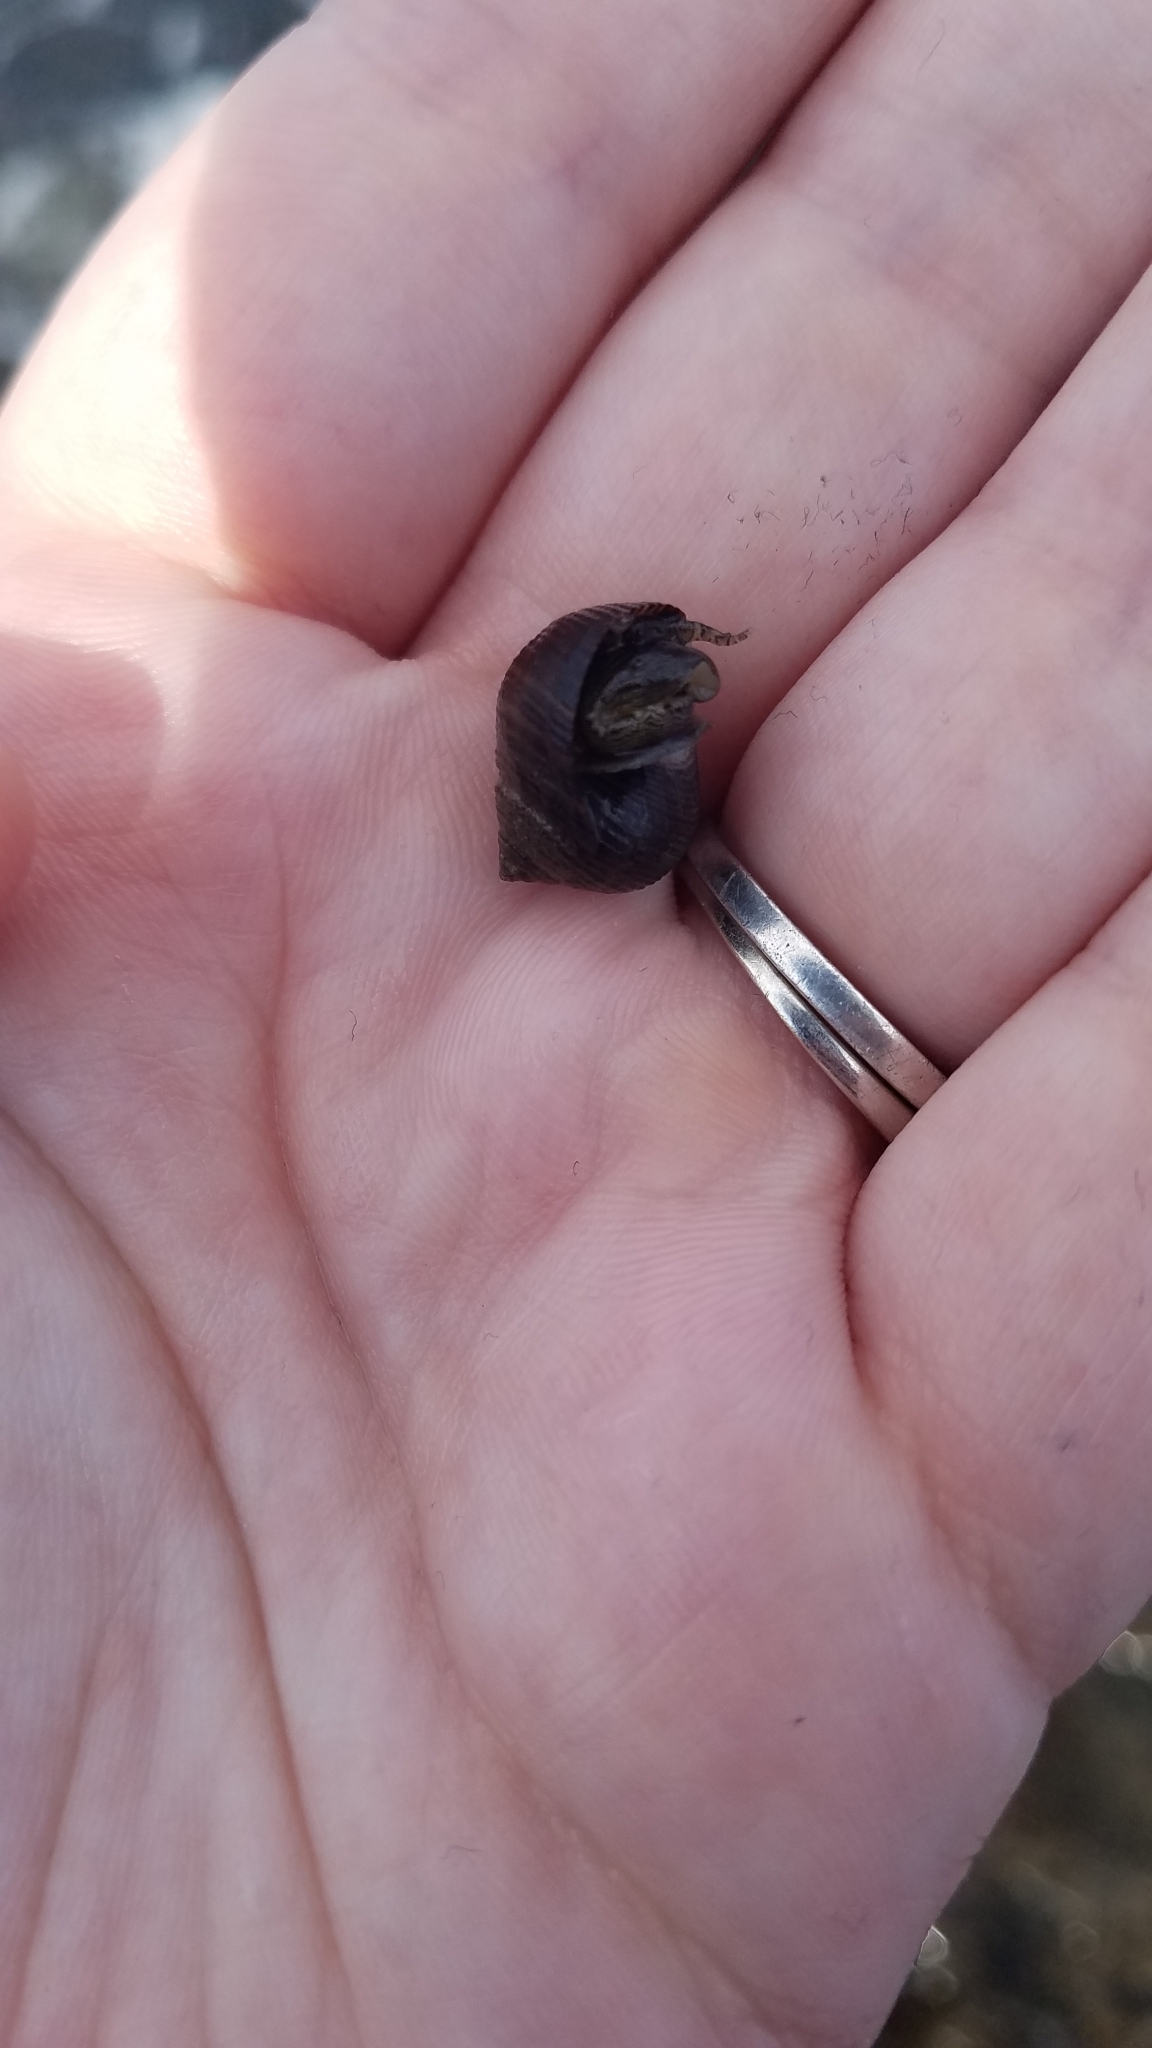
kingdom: Animalia
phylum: Mollusca
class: Gastropoda
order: Littorinimorpha
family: Littorinidae
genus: Littorina
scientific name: Littorina littorea
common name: Common periwinkle
